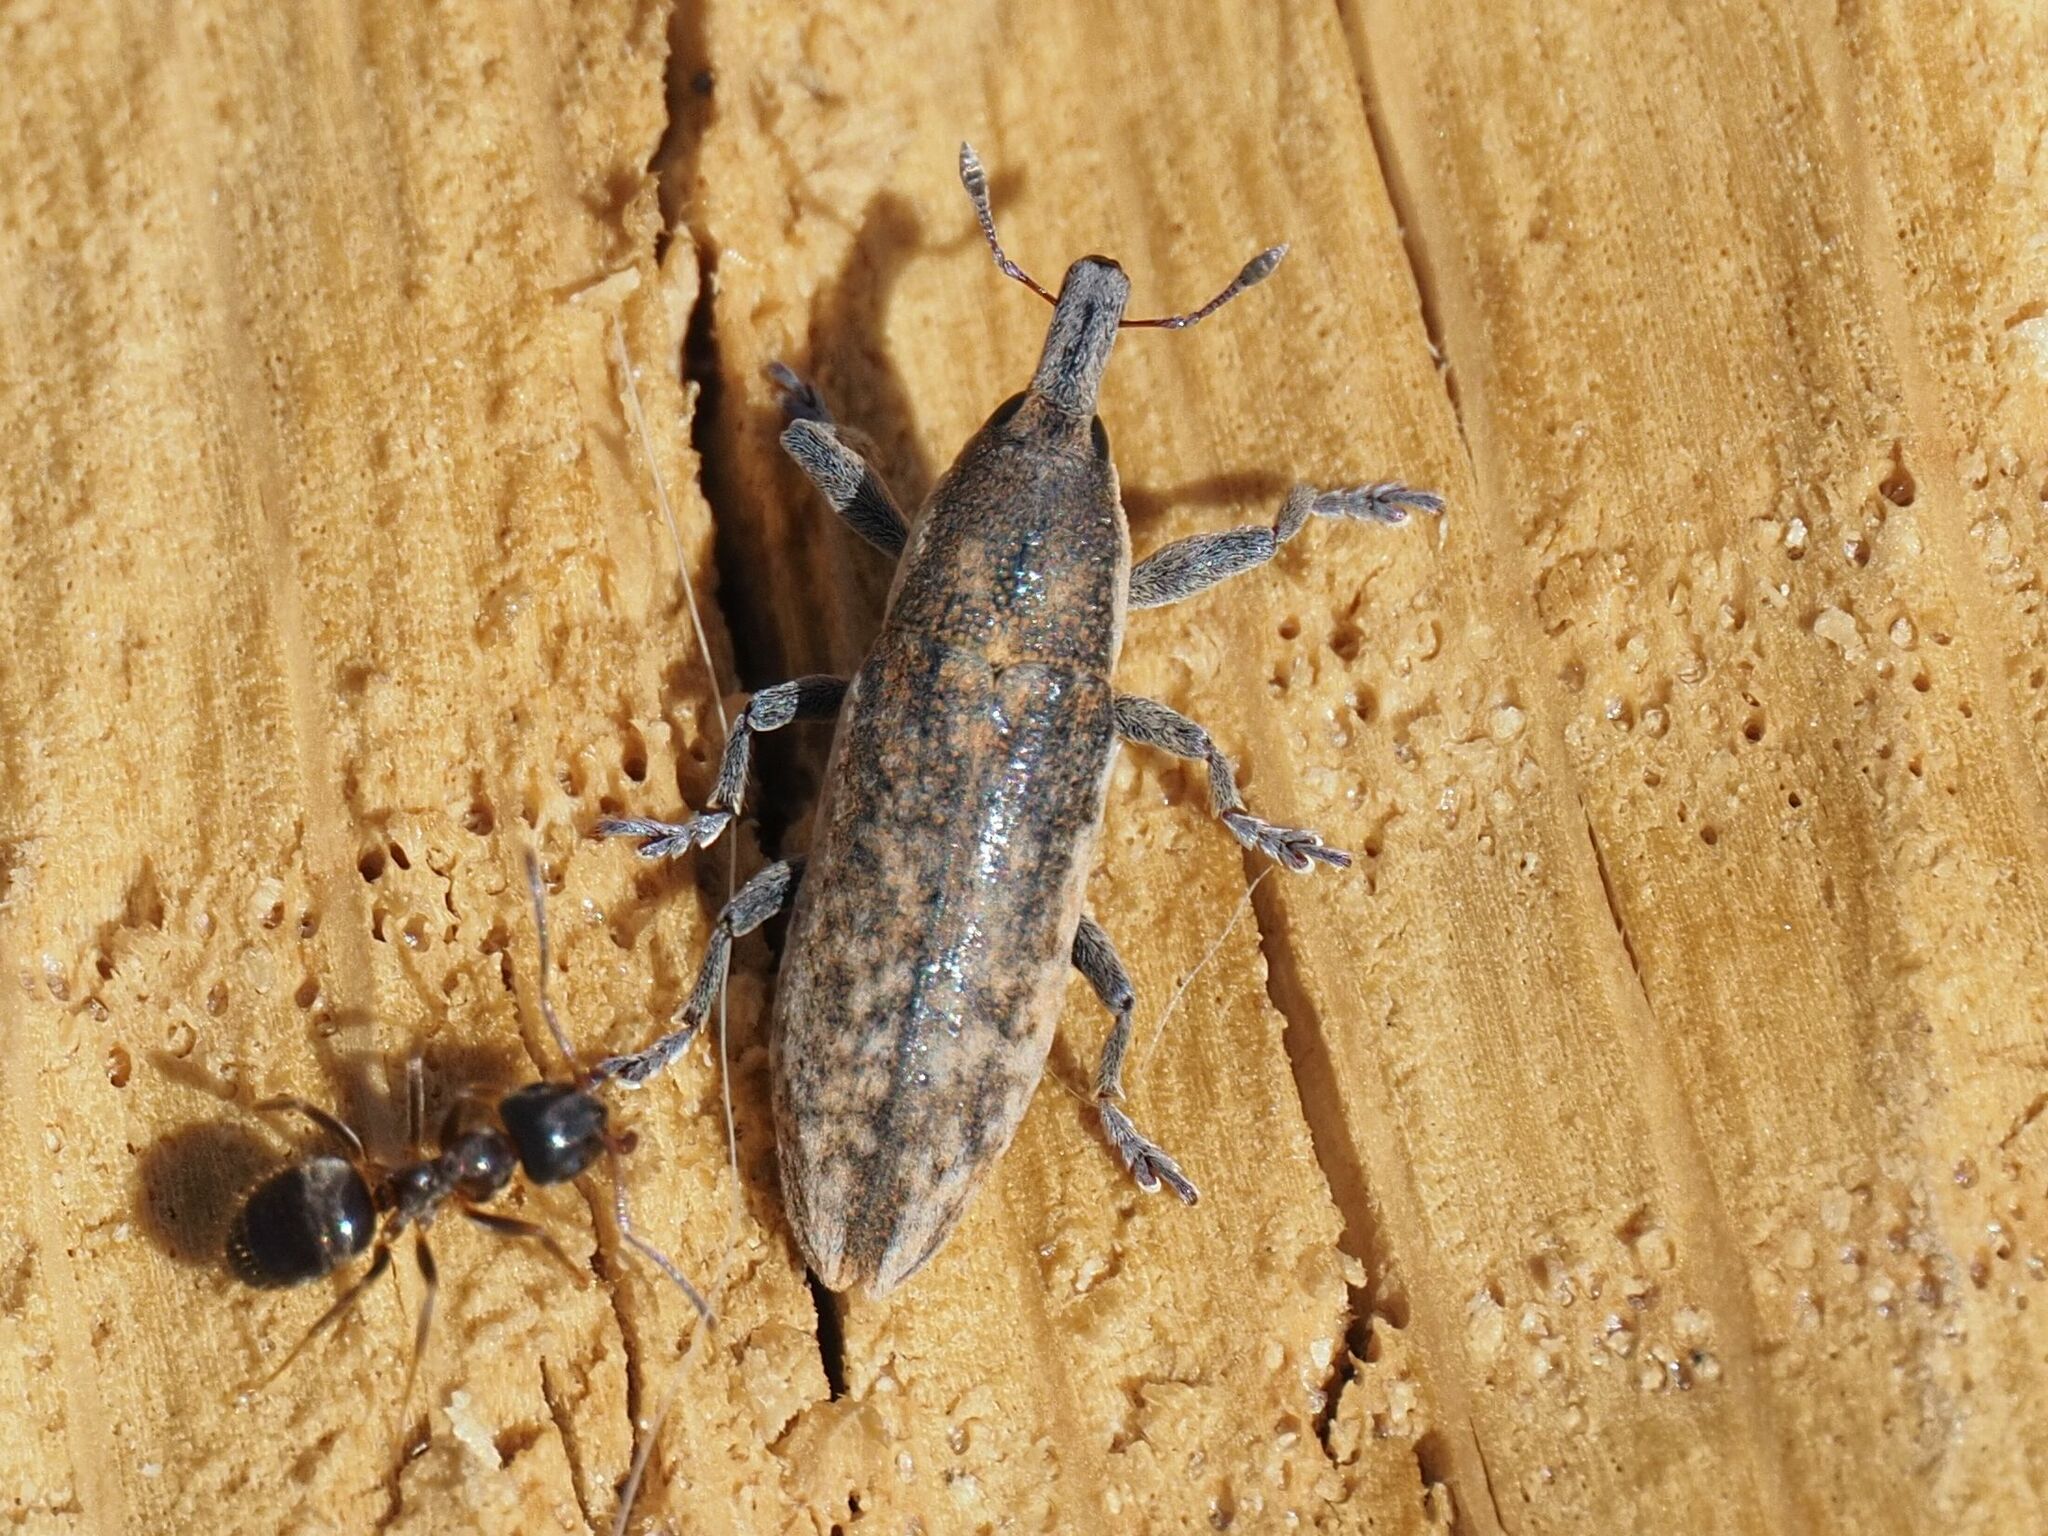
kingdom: Animalia
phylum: Arthropoda
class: Insecta
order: Coleoptera
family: Curculionidae
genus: Lixus
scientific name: Lixus subtilis
